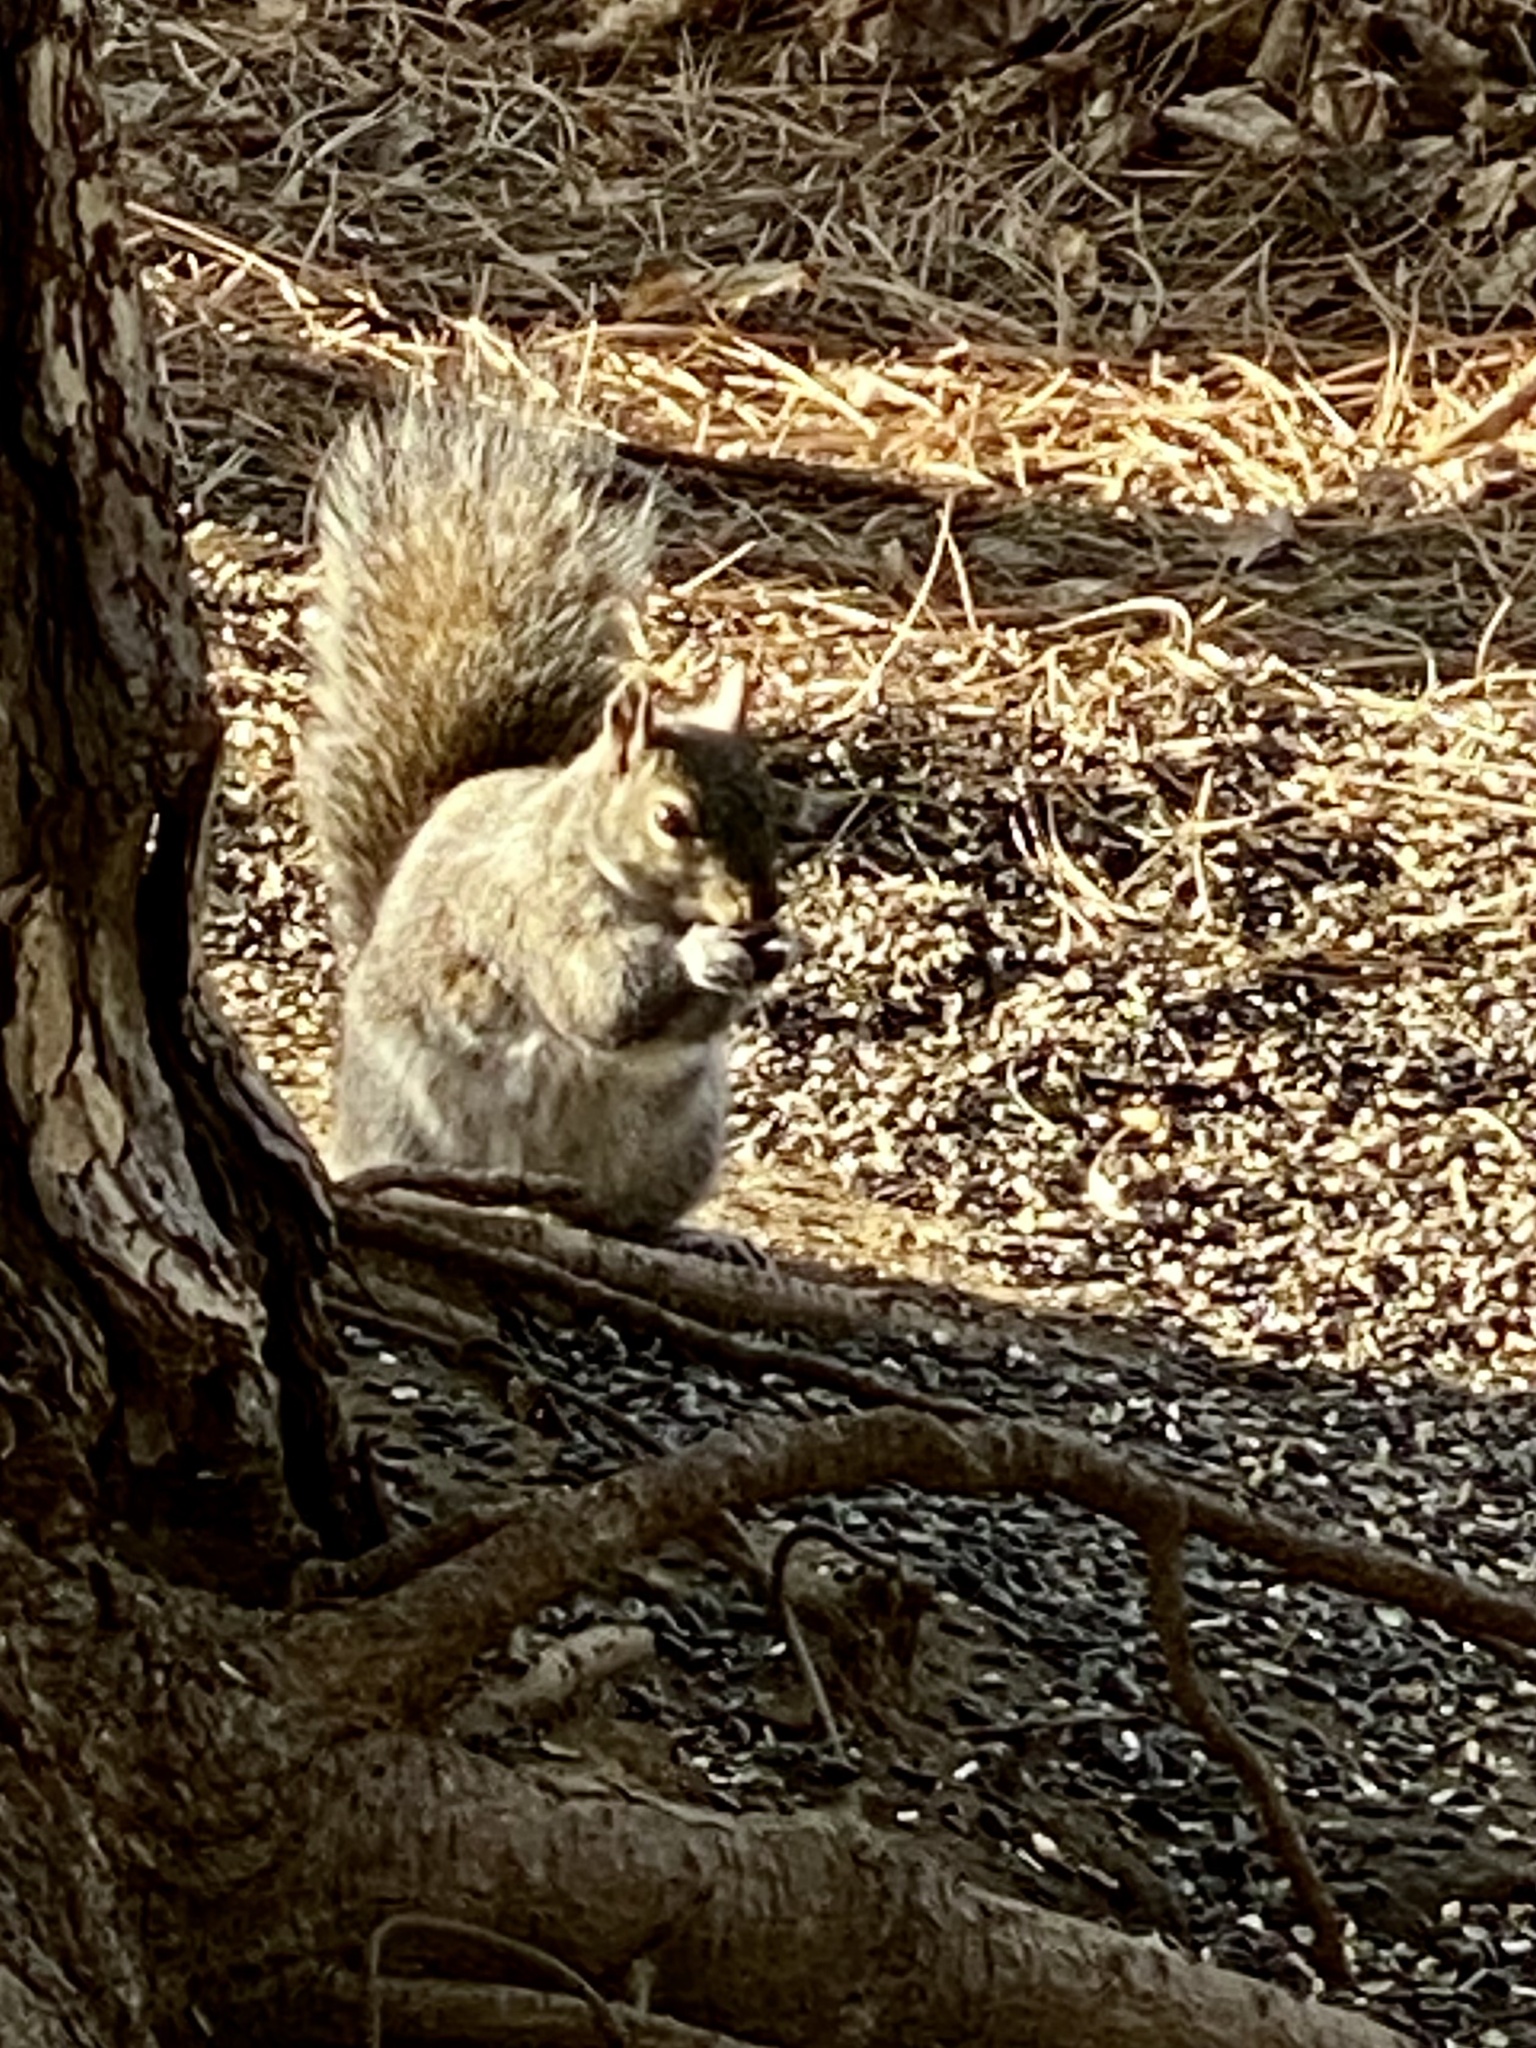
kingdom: Animalia
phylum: Chordata
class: Mammalia
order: Rodentia
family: Sciuridae
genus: Sciurus
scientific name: Sciurus carolinensis
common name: Eastern gray squirrel
